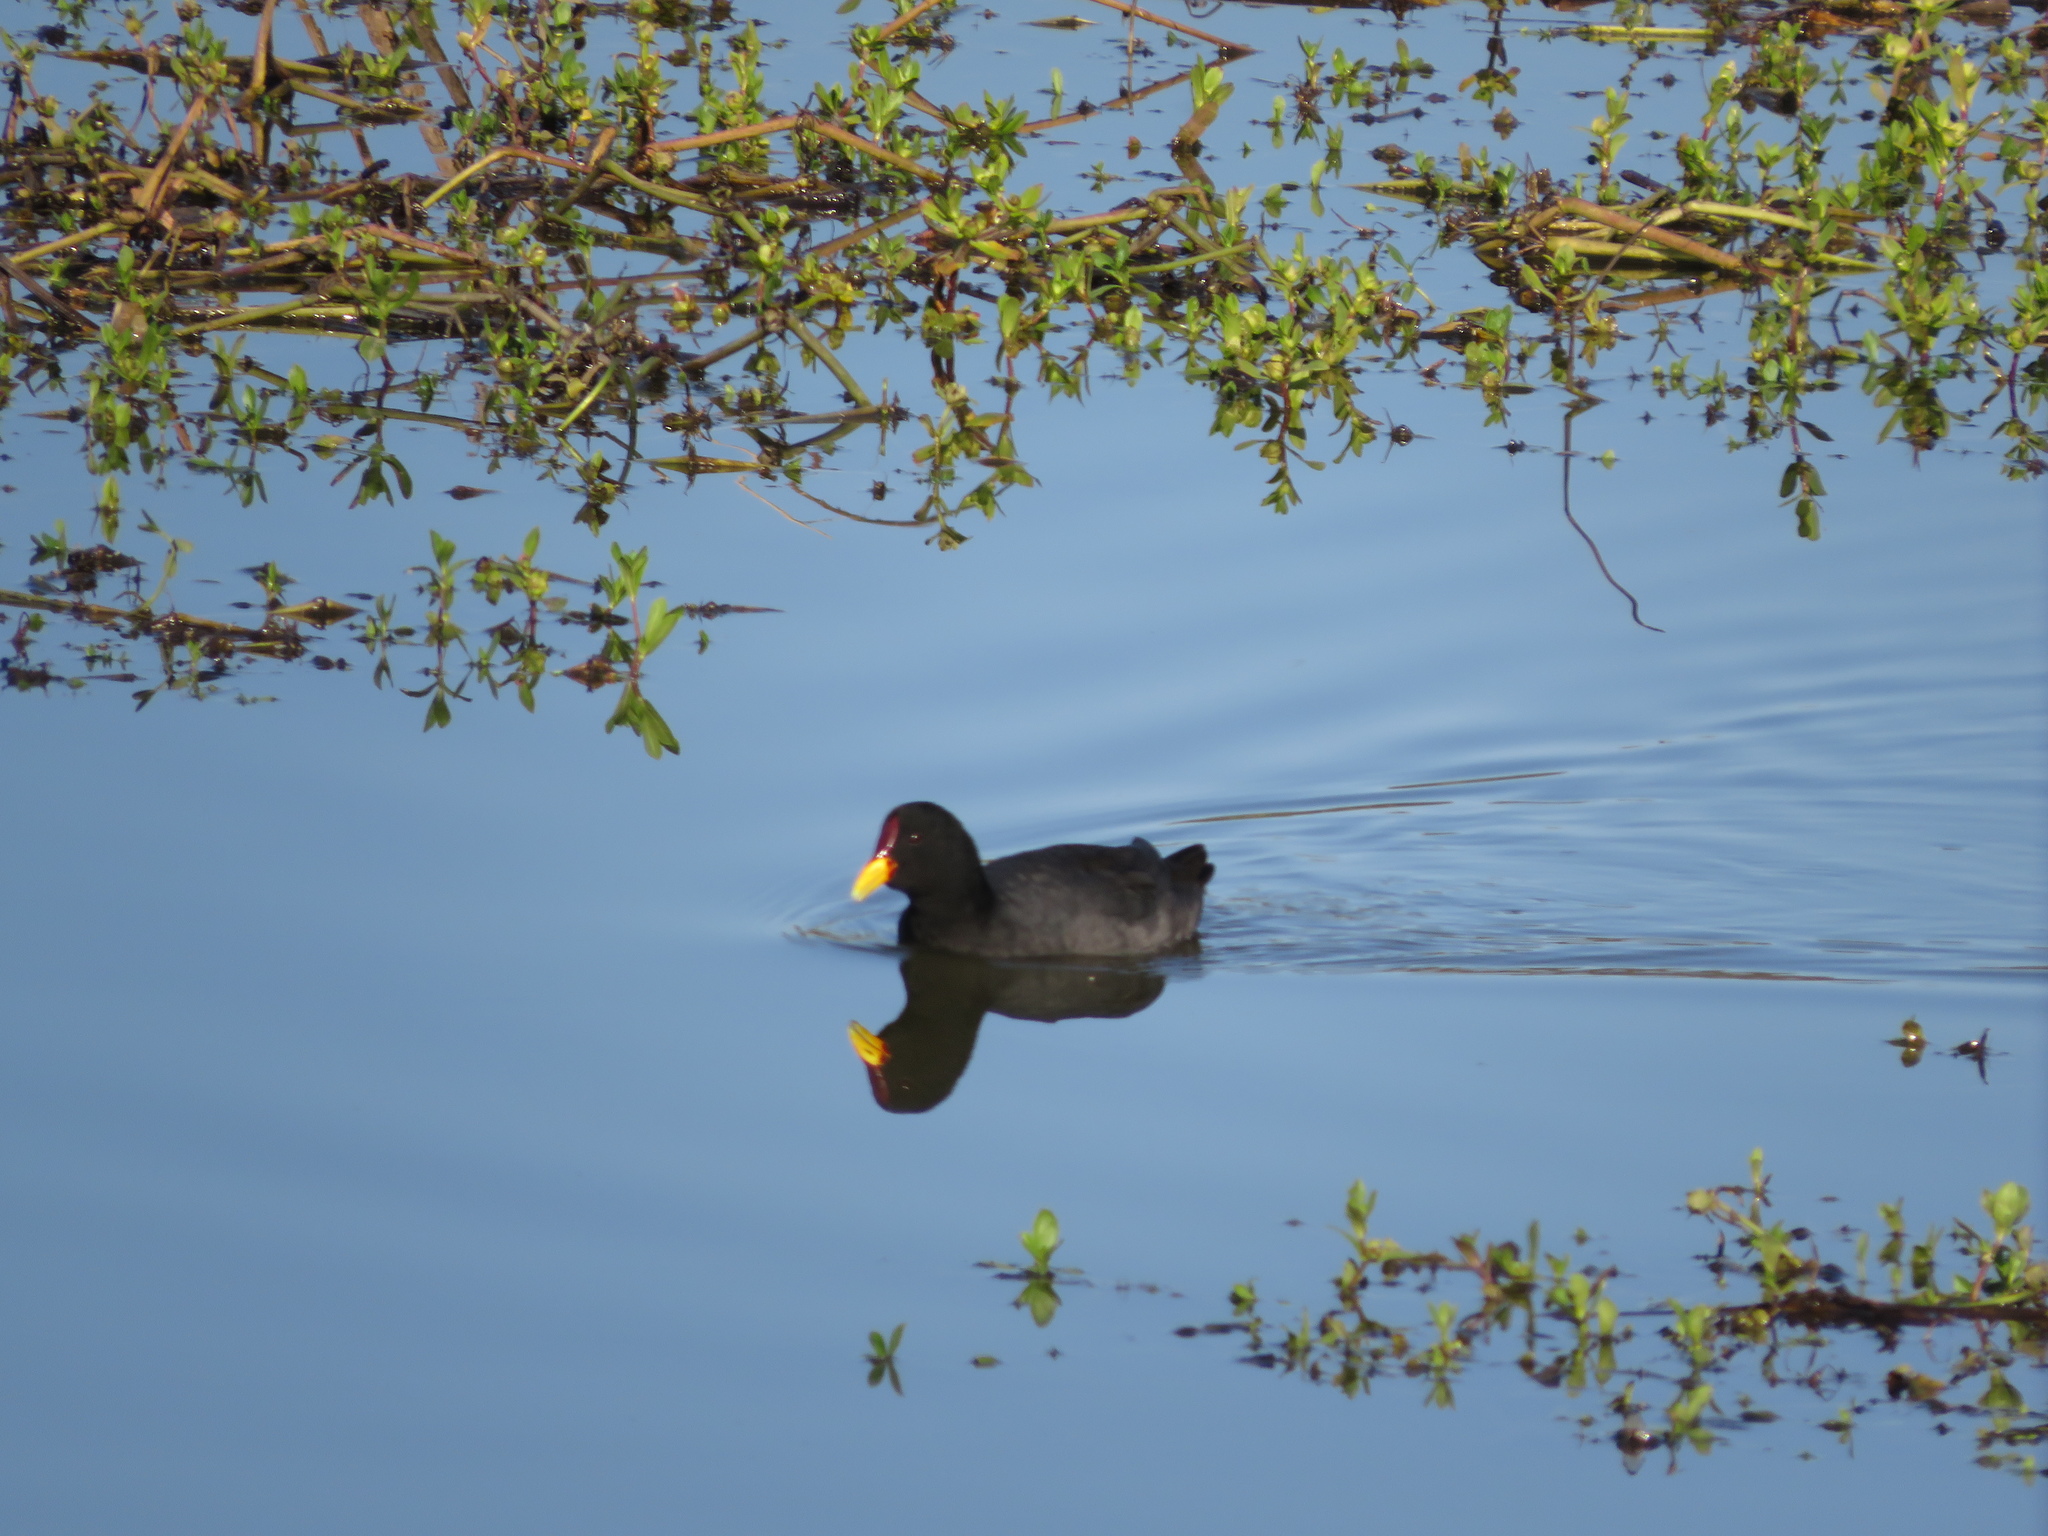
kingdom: Animalia
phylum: Chordata
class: Aves
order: Gruiformes
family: Rallidae
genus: Fulica
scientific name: Fulica rufifrons
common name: Red-fronted coot
